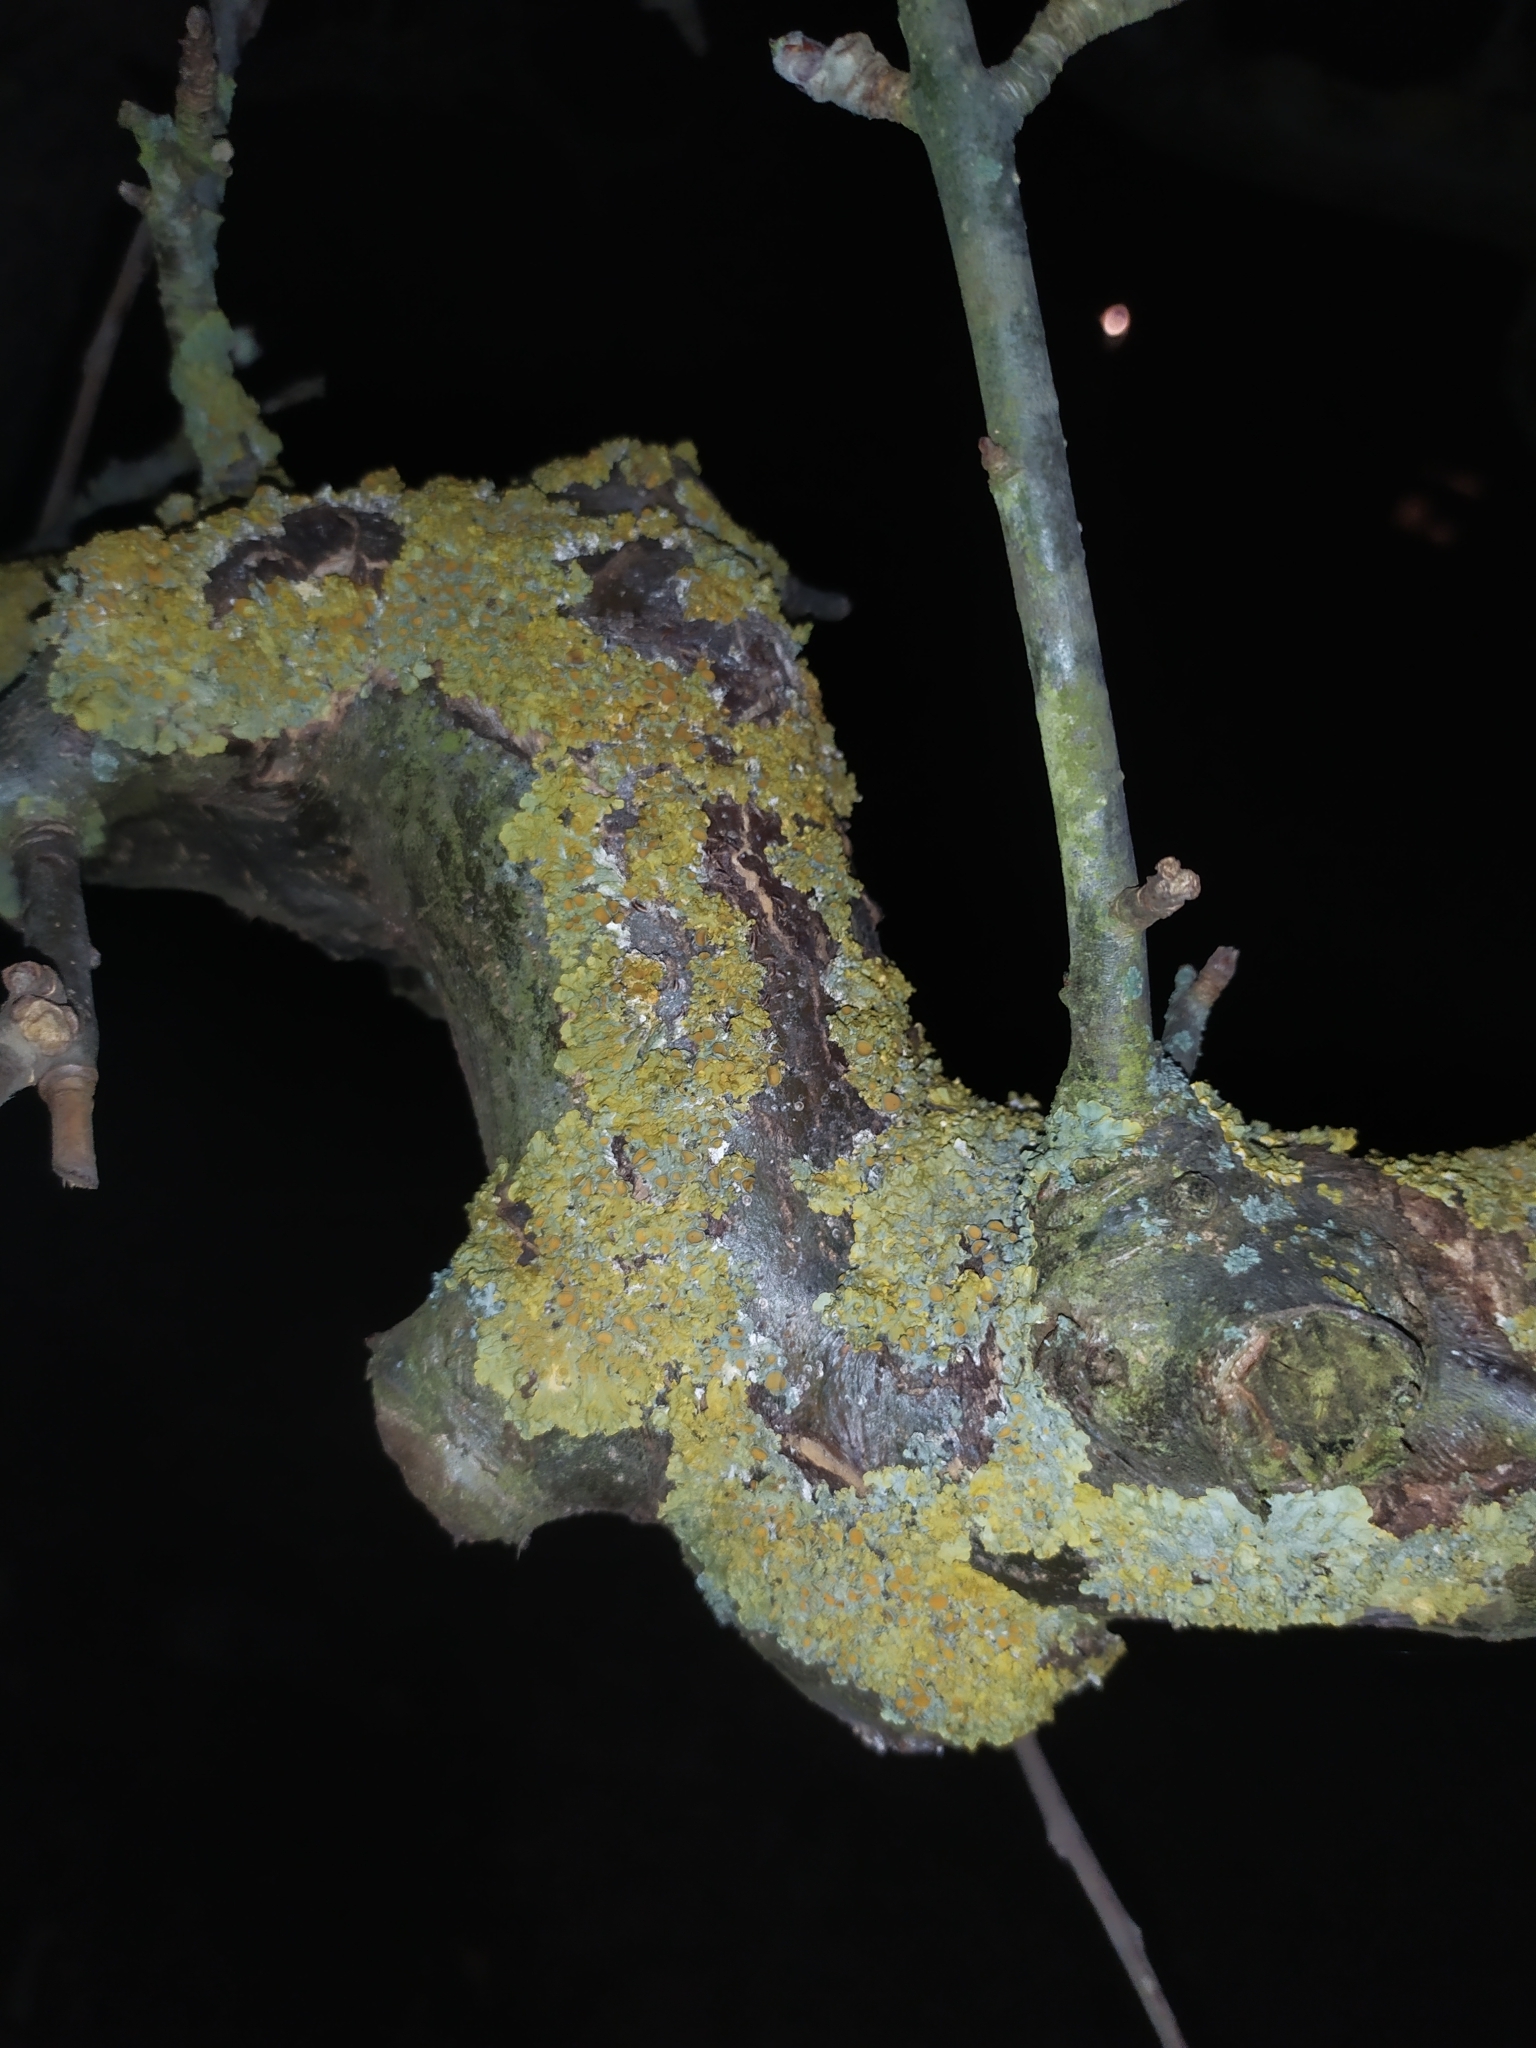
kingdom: Fungi
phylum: Ascomycota
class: Lecanoromycetes
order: Teloschistales
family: Teloschistaceae
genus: Xanthoria
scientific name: Xanthoria parietina
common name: Common orange lichen
